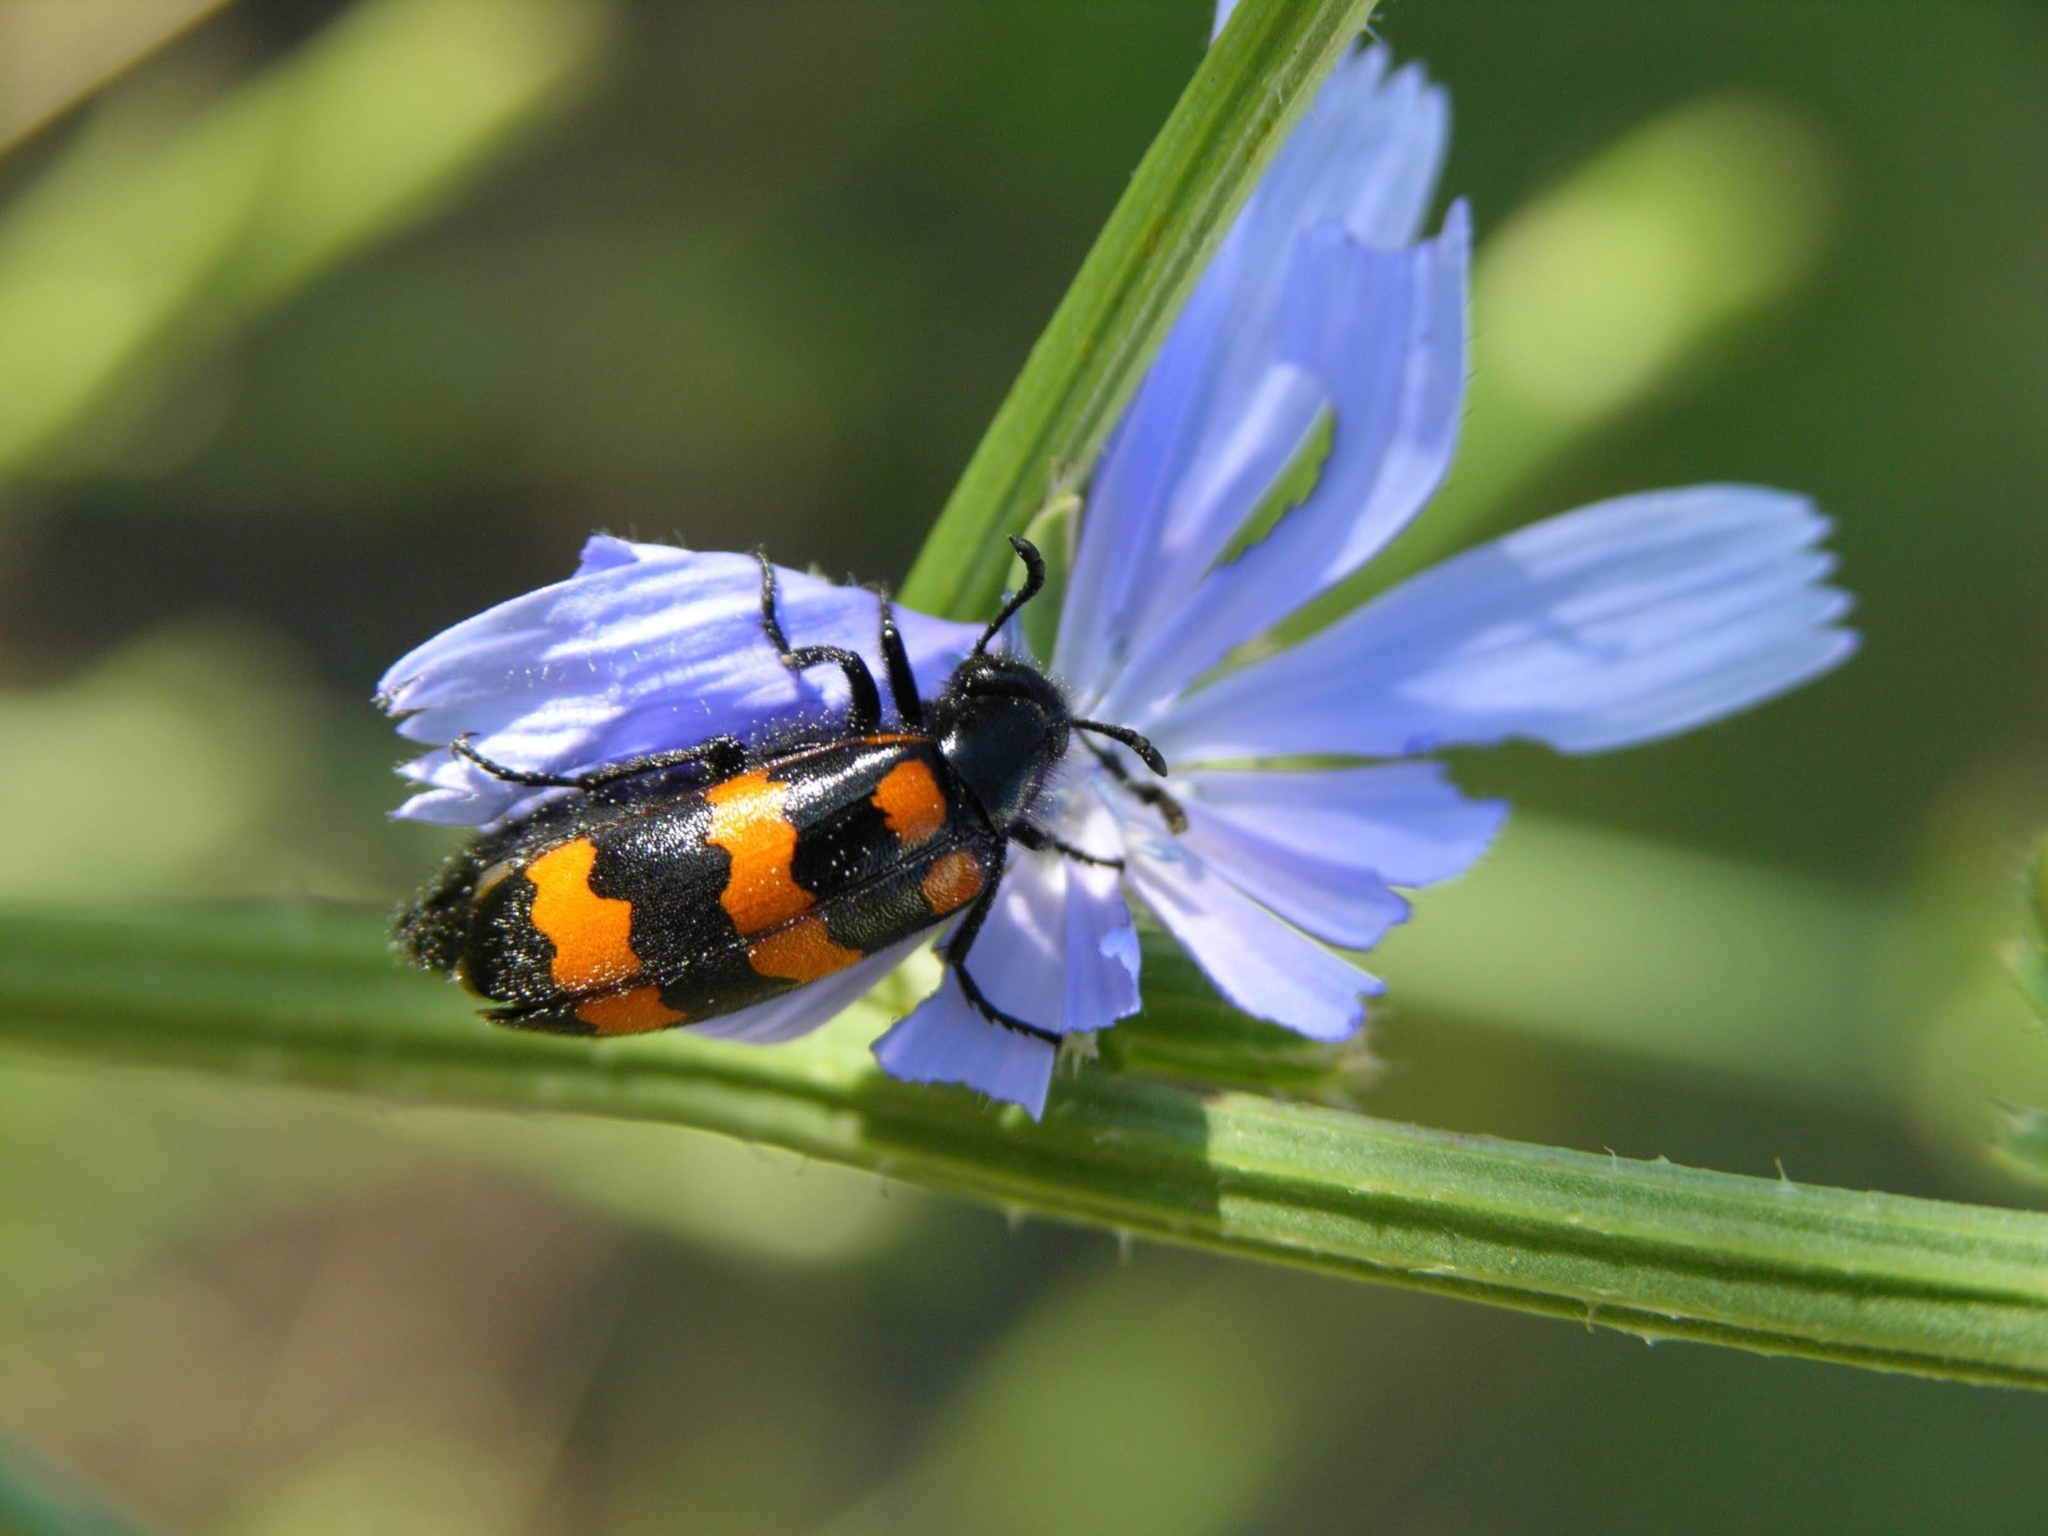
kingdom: Animalia
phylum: Arthropoda
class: Insecta
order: Coleoptera
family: Meloidae
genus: Mylabris
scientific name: Mylabris variabilis
